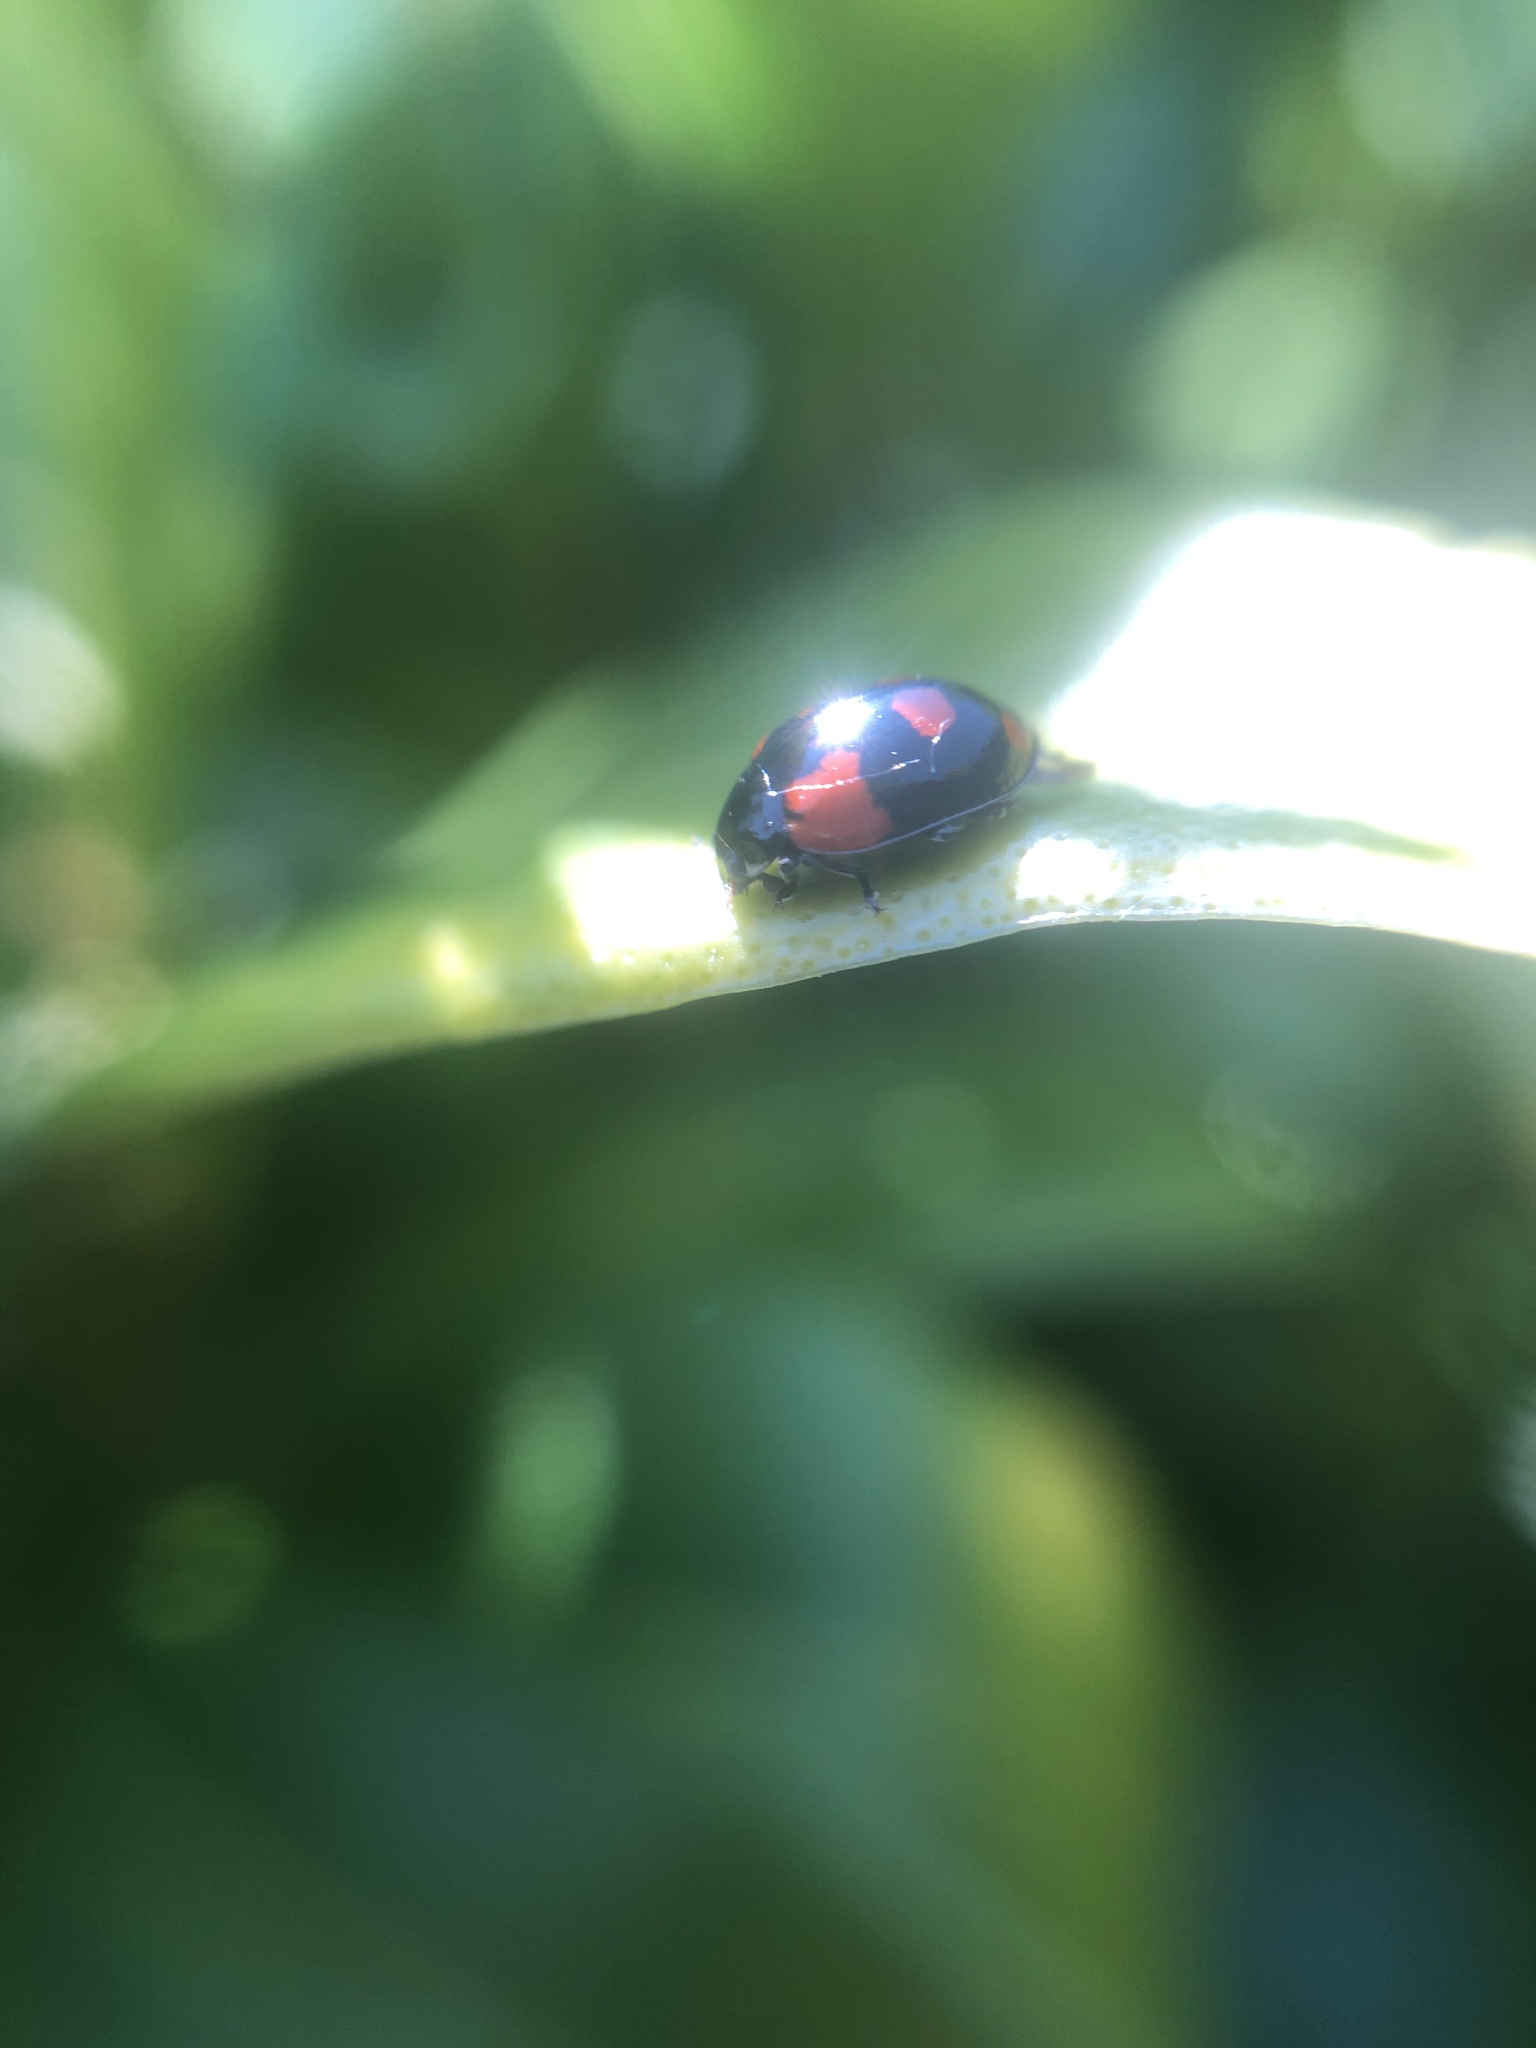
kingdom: Animalia
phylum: Arthropoda
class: Insecta
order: Coleoptera
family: Coccinellidae
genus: Adalia
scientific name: Adalia bipunctata
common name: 2-spot ladybird
